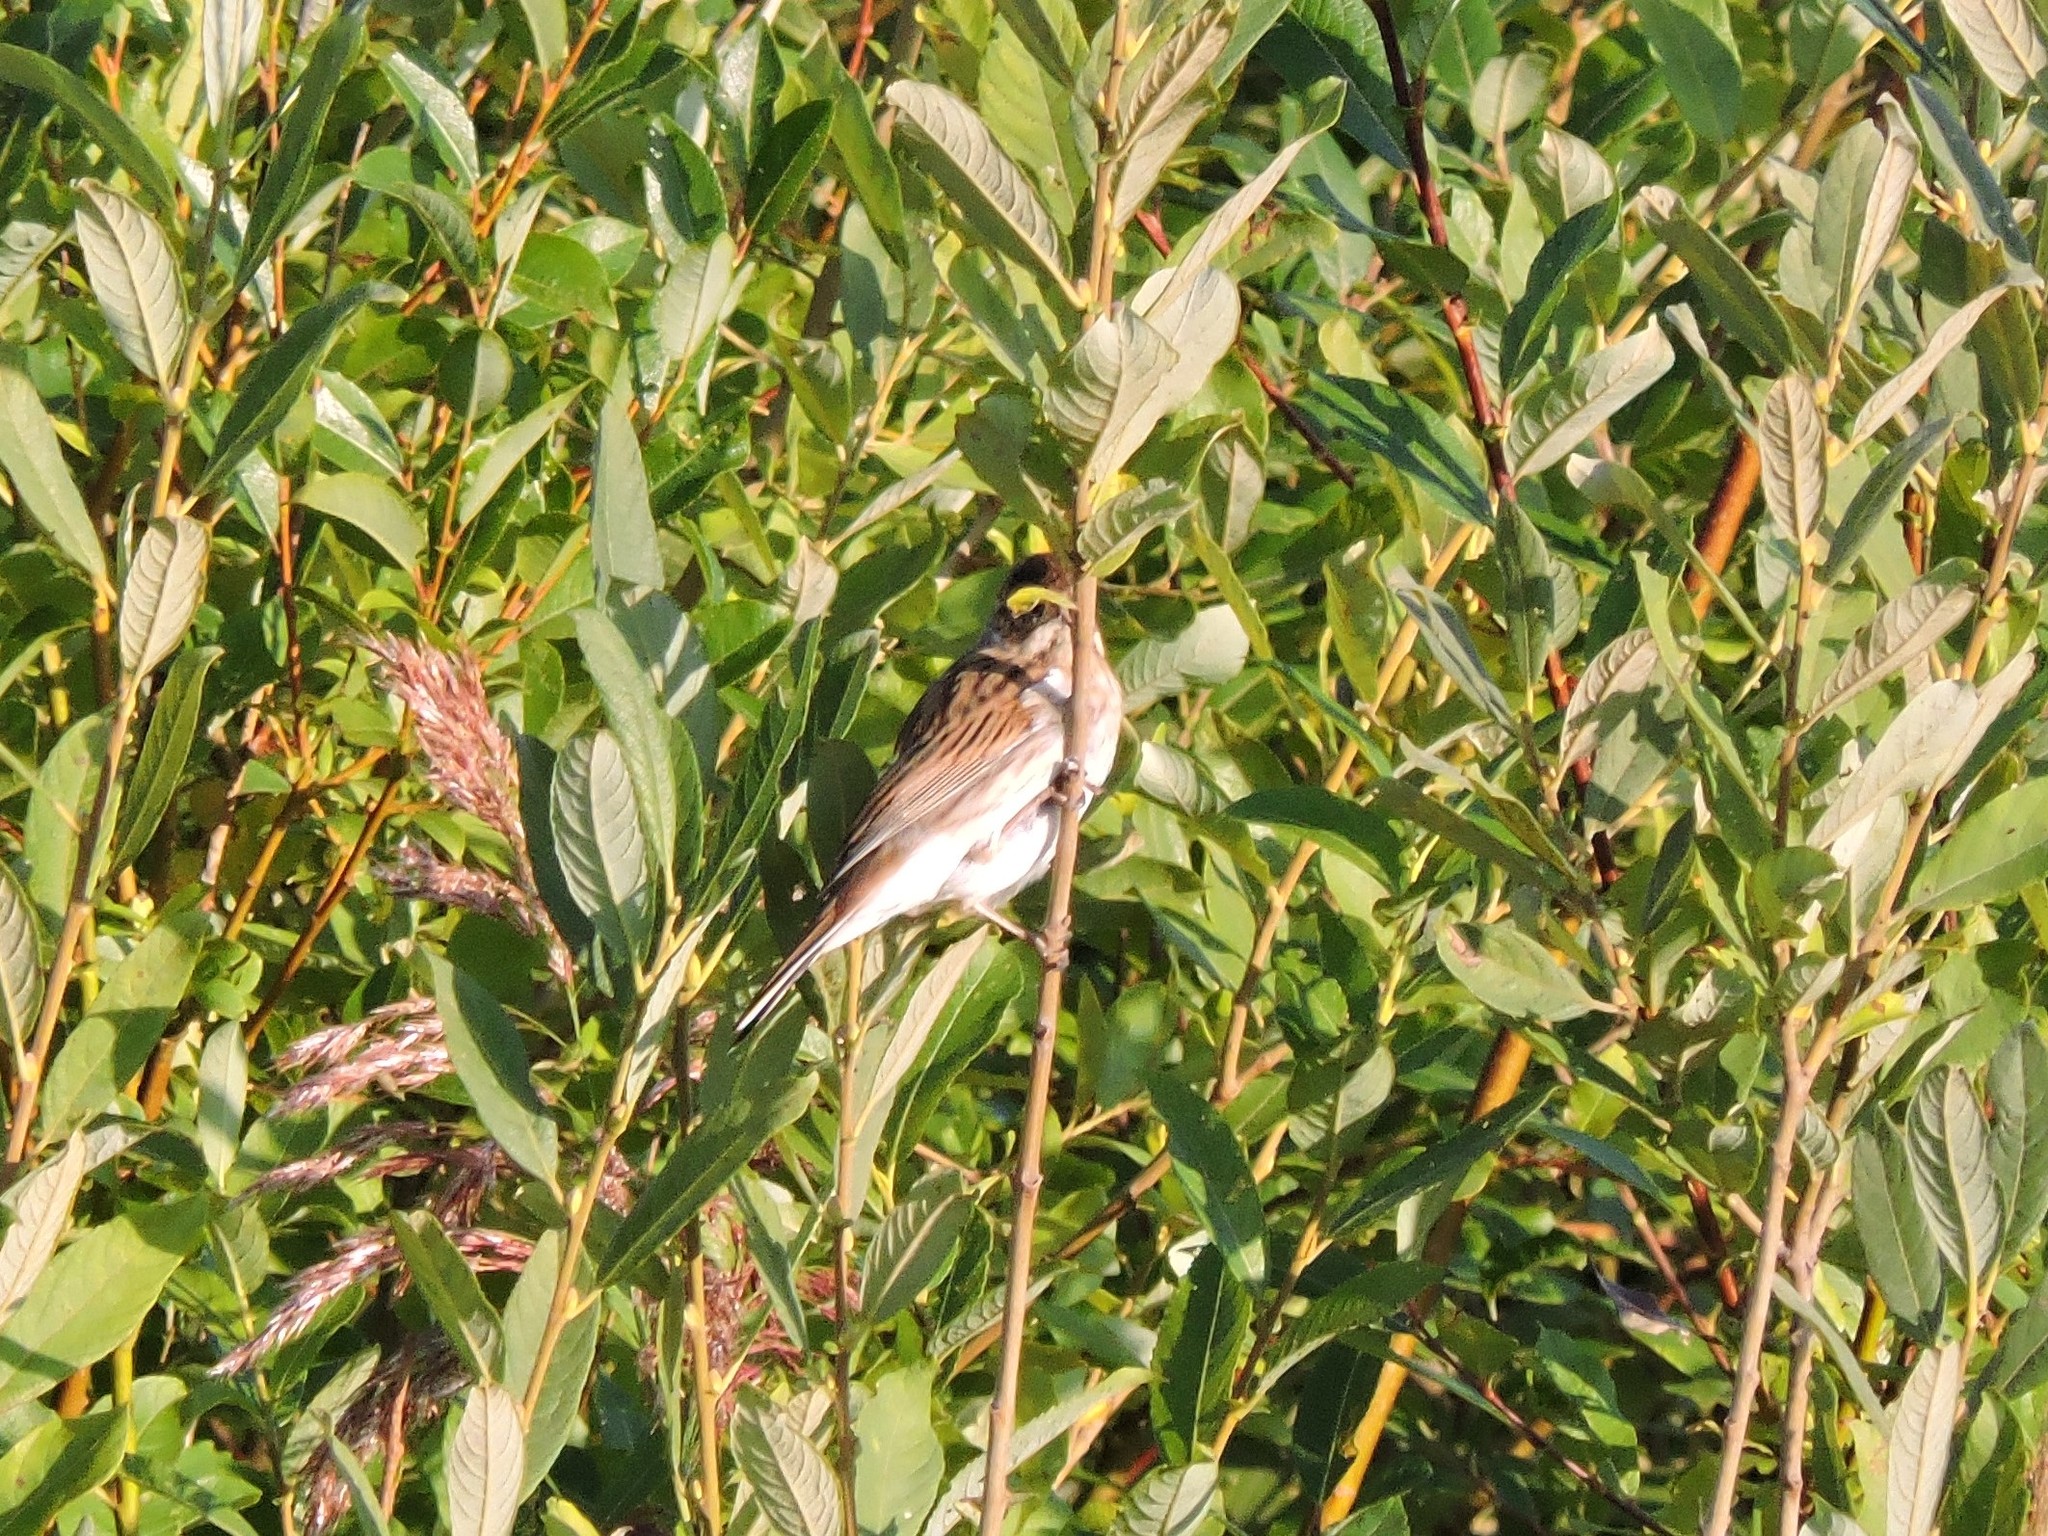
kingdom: Animalia
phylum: Chordata
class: Aves
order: Passeriformes
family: Emberizidae
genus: Emberiza
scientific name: Emberiza schoeniclus
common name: Reed bunting
